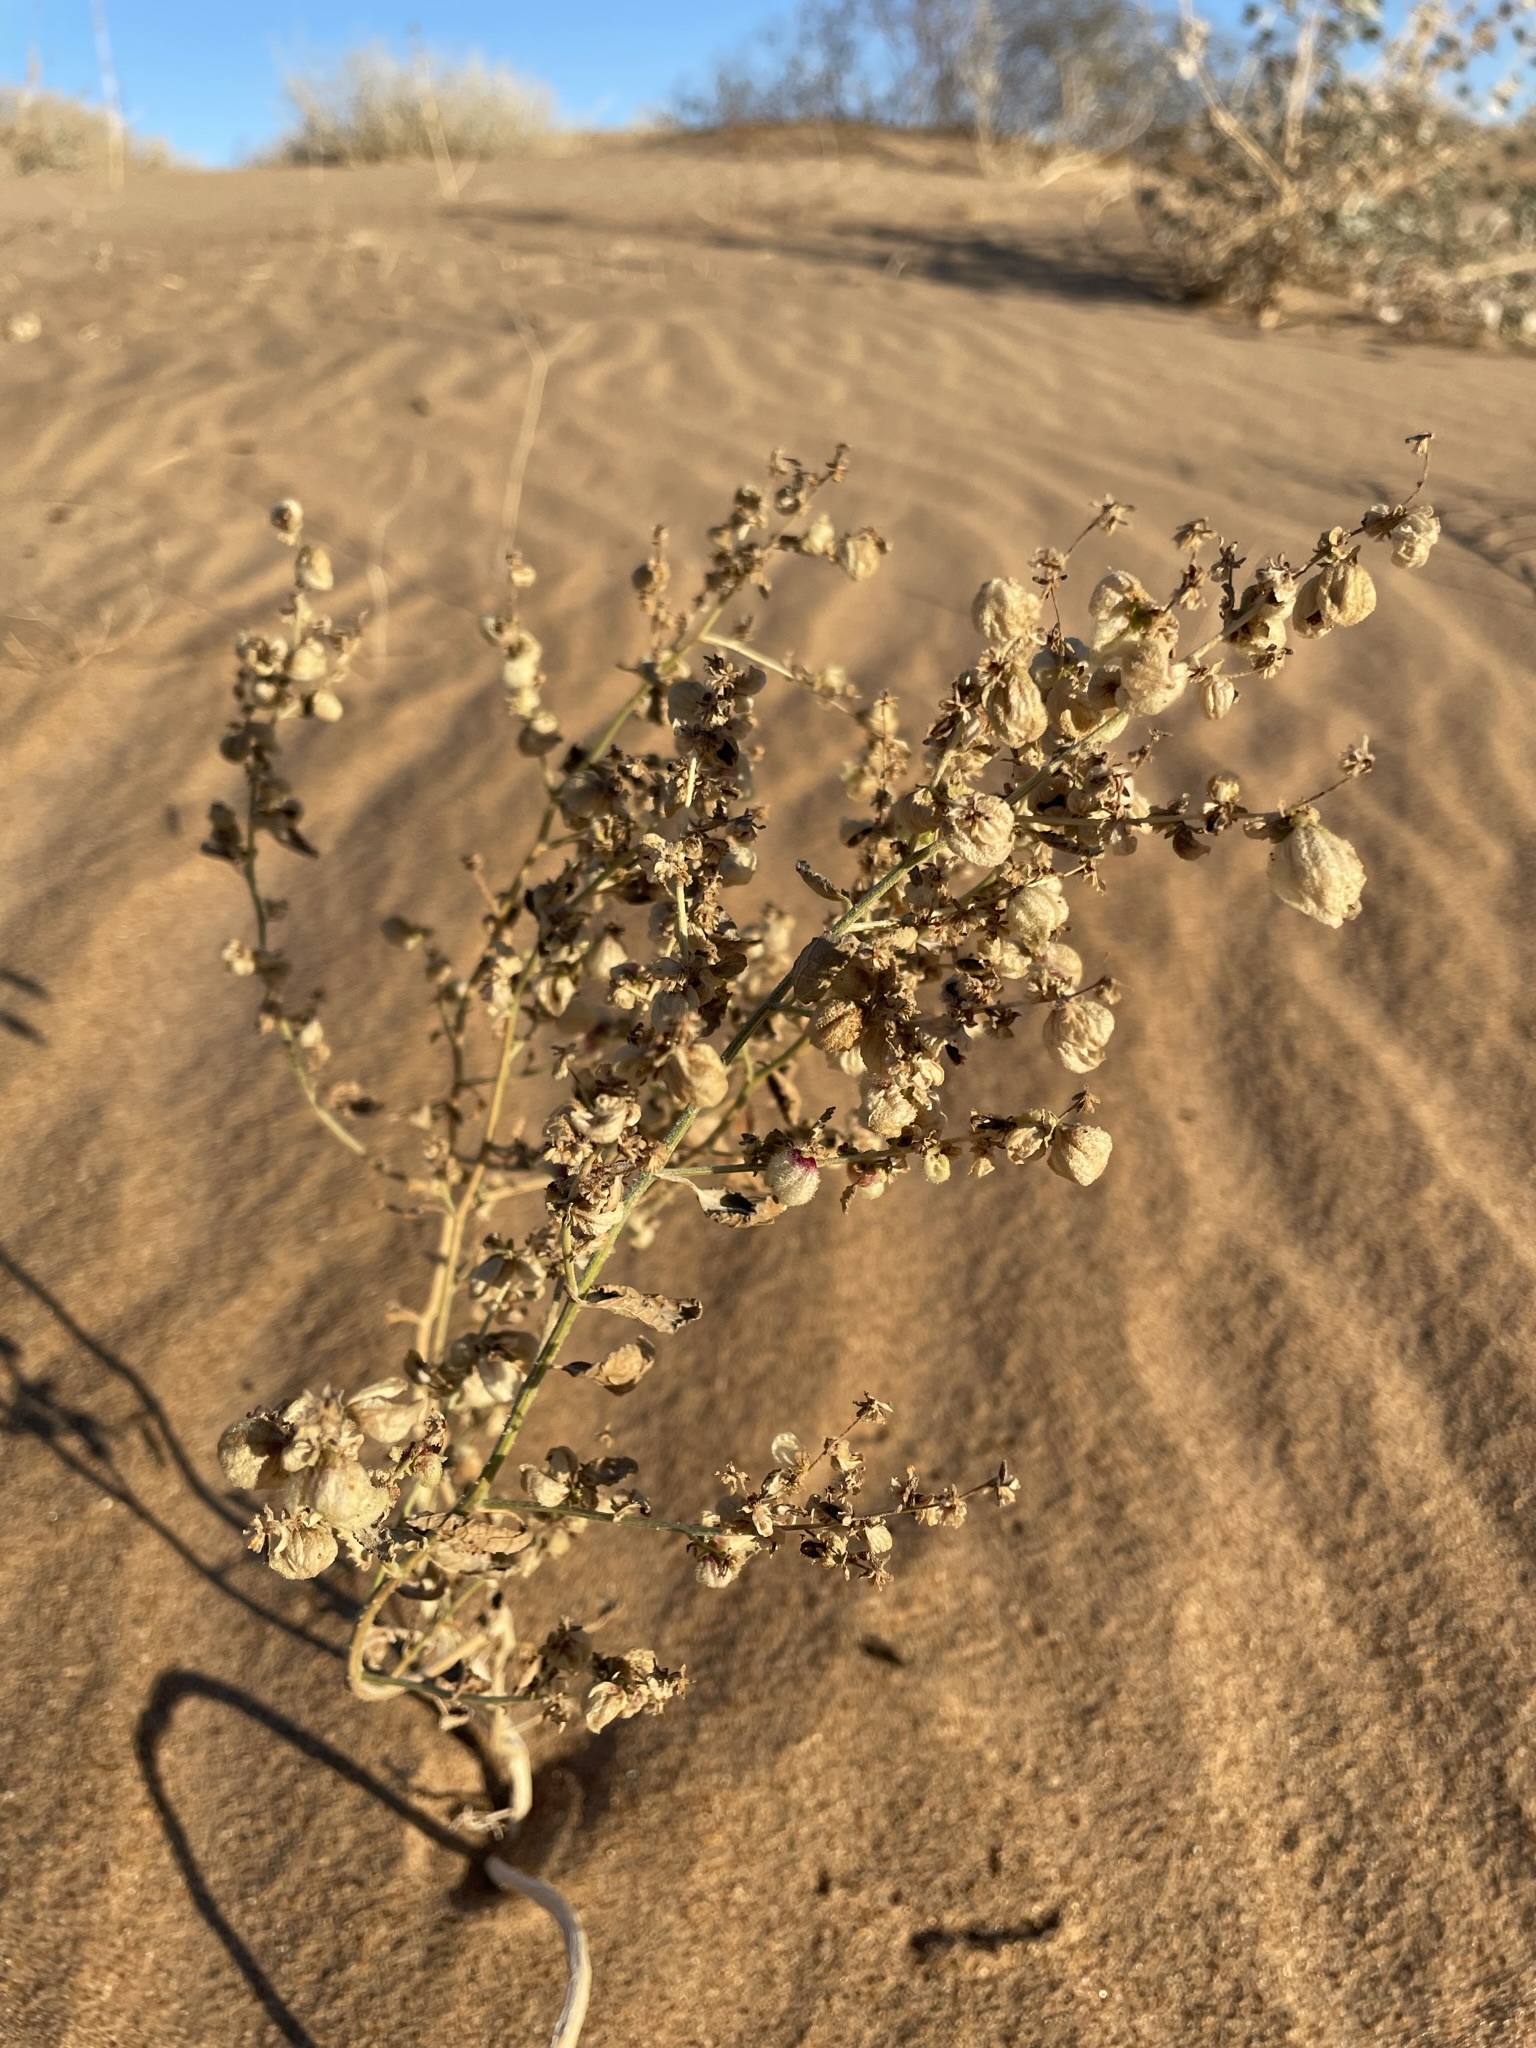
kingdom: Plantae
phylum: Tracheophyta
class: Magnoliopsida
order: Asterales
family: Asteraceae
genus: Dicoria
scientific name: Dicoria canescens
